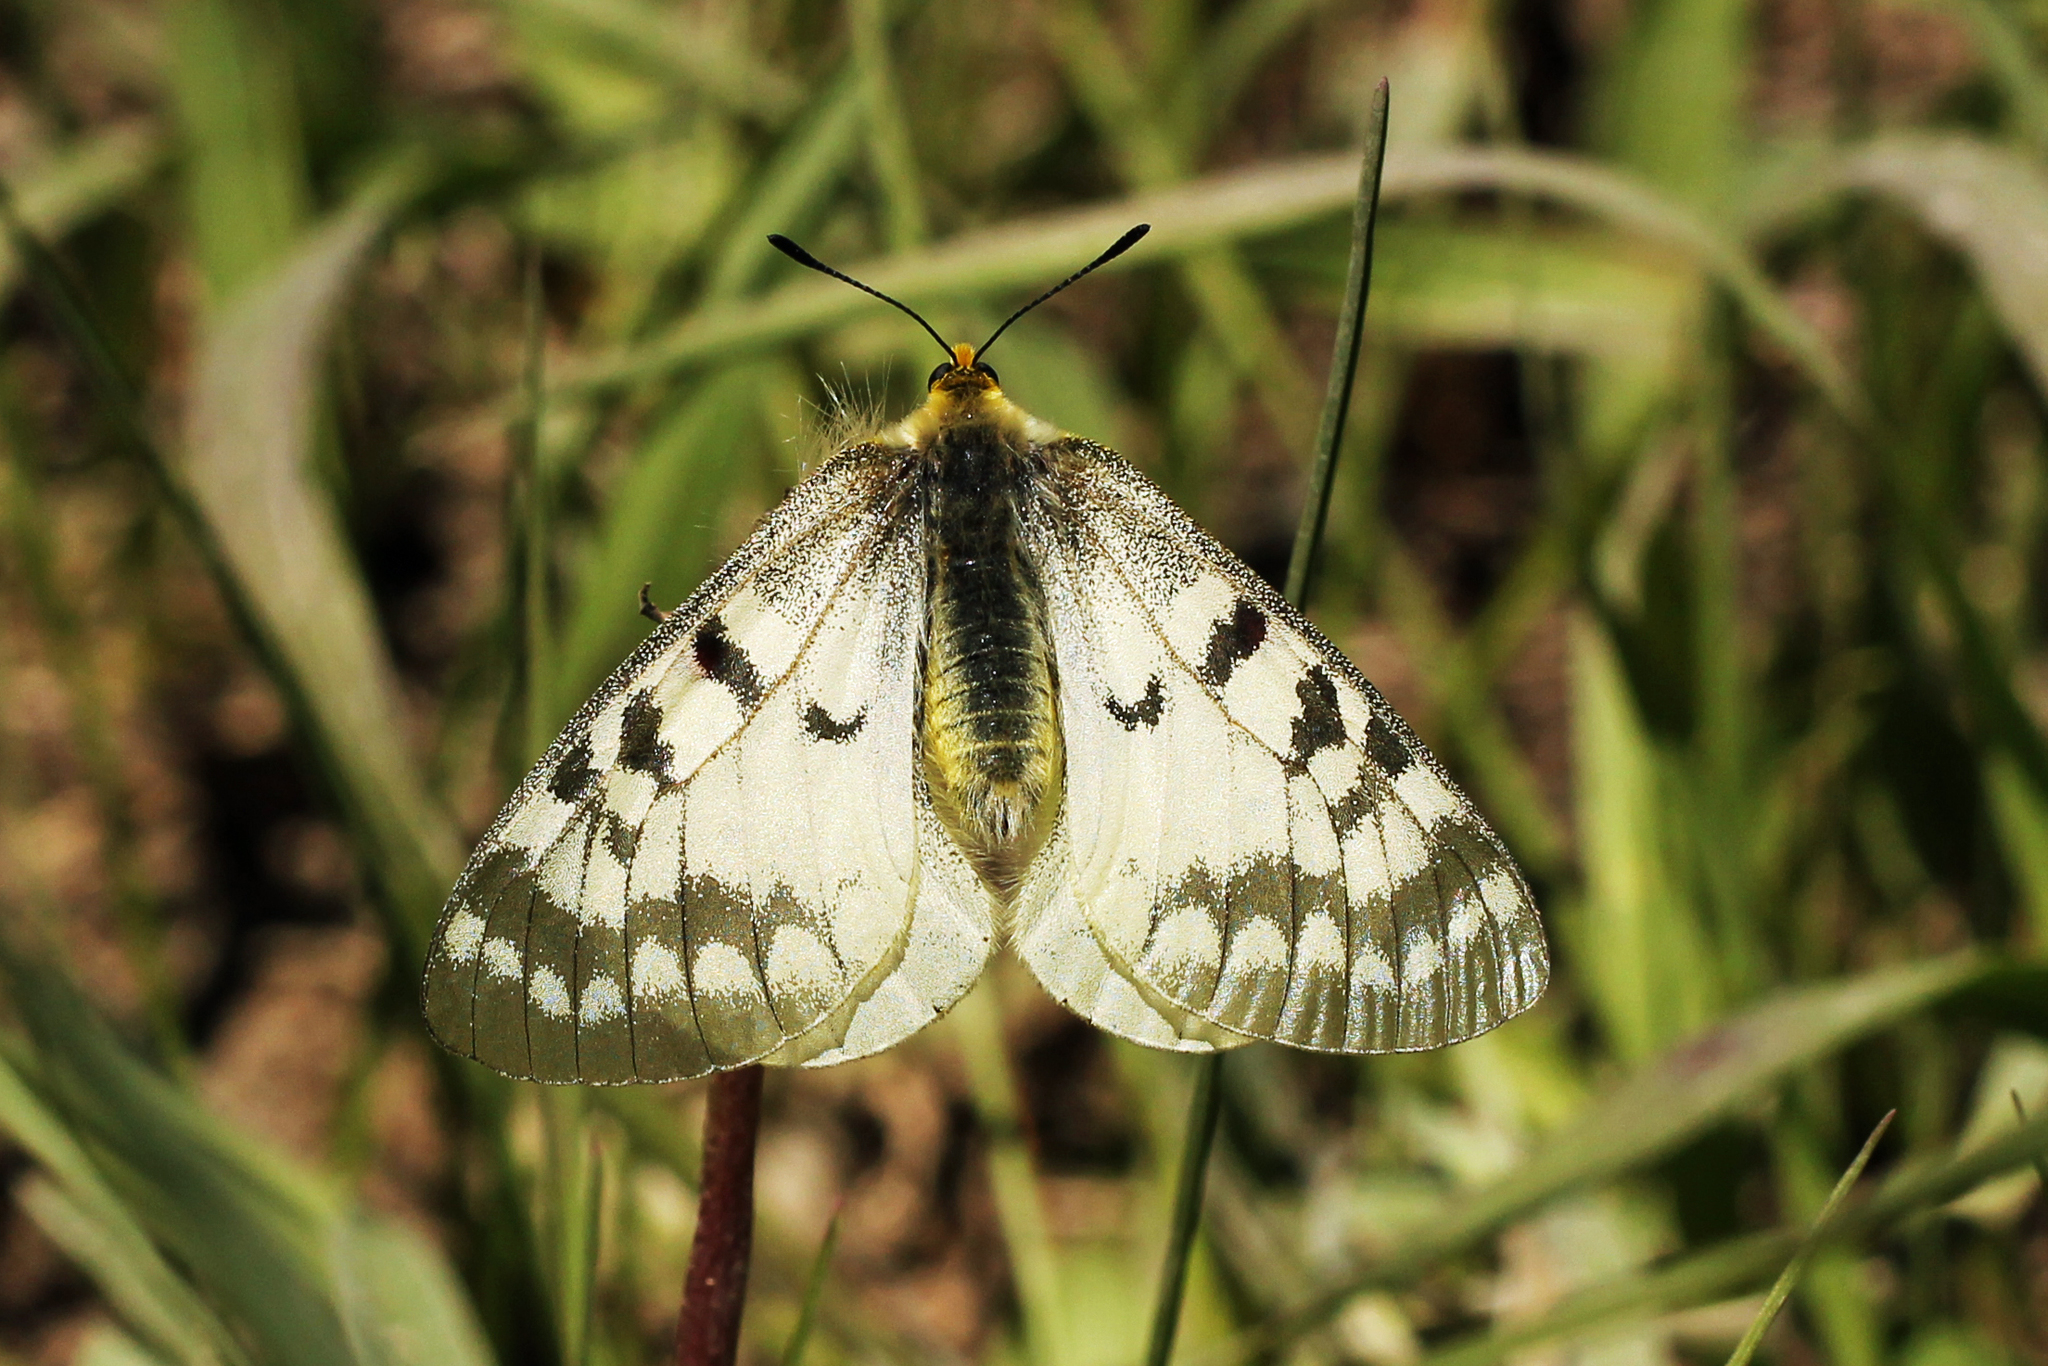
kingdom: Animalia
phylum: Arthropoda
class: Insecta
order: Lepidoptera
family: Papilionidae
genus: Parnassius
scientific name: Parnassius clodius
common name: American apollo
